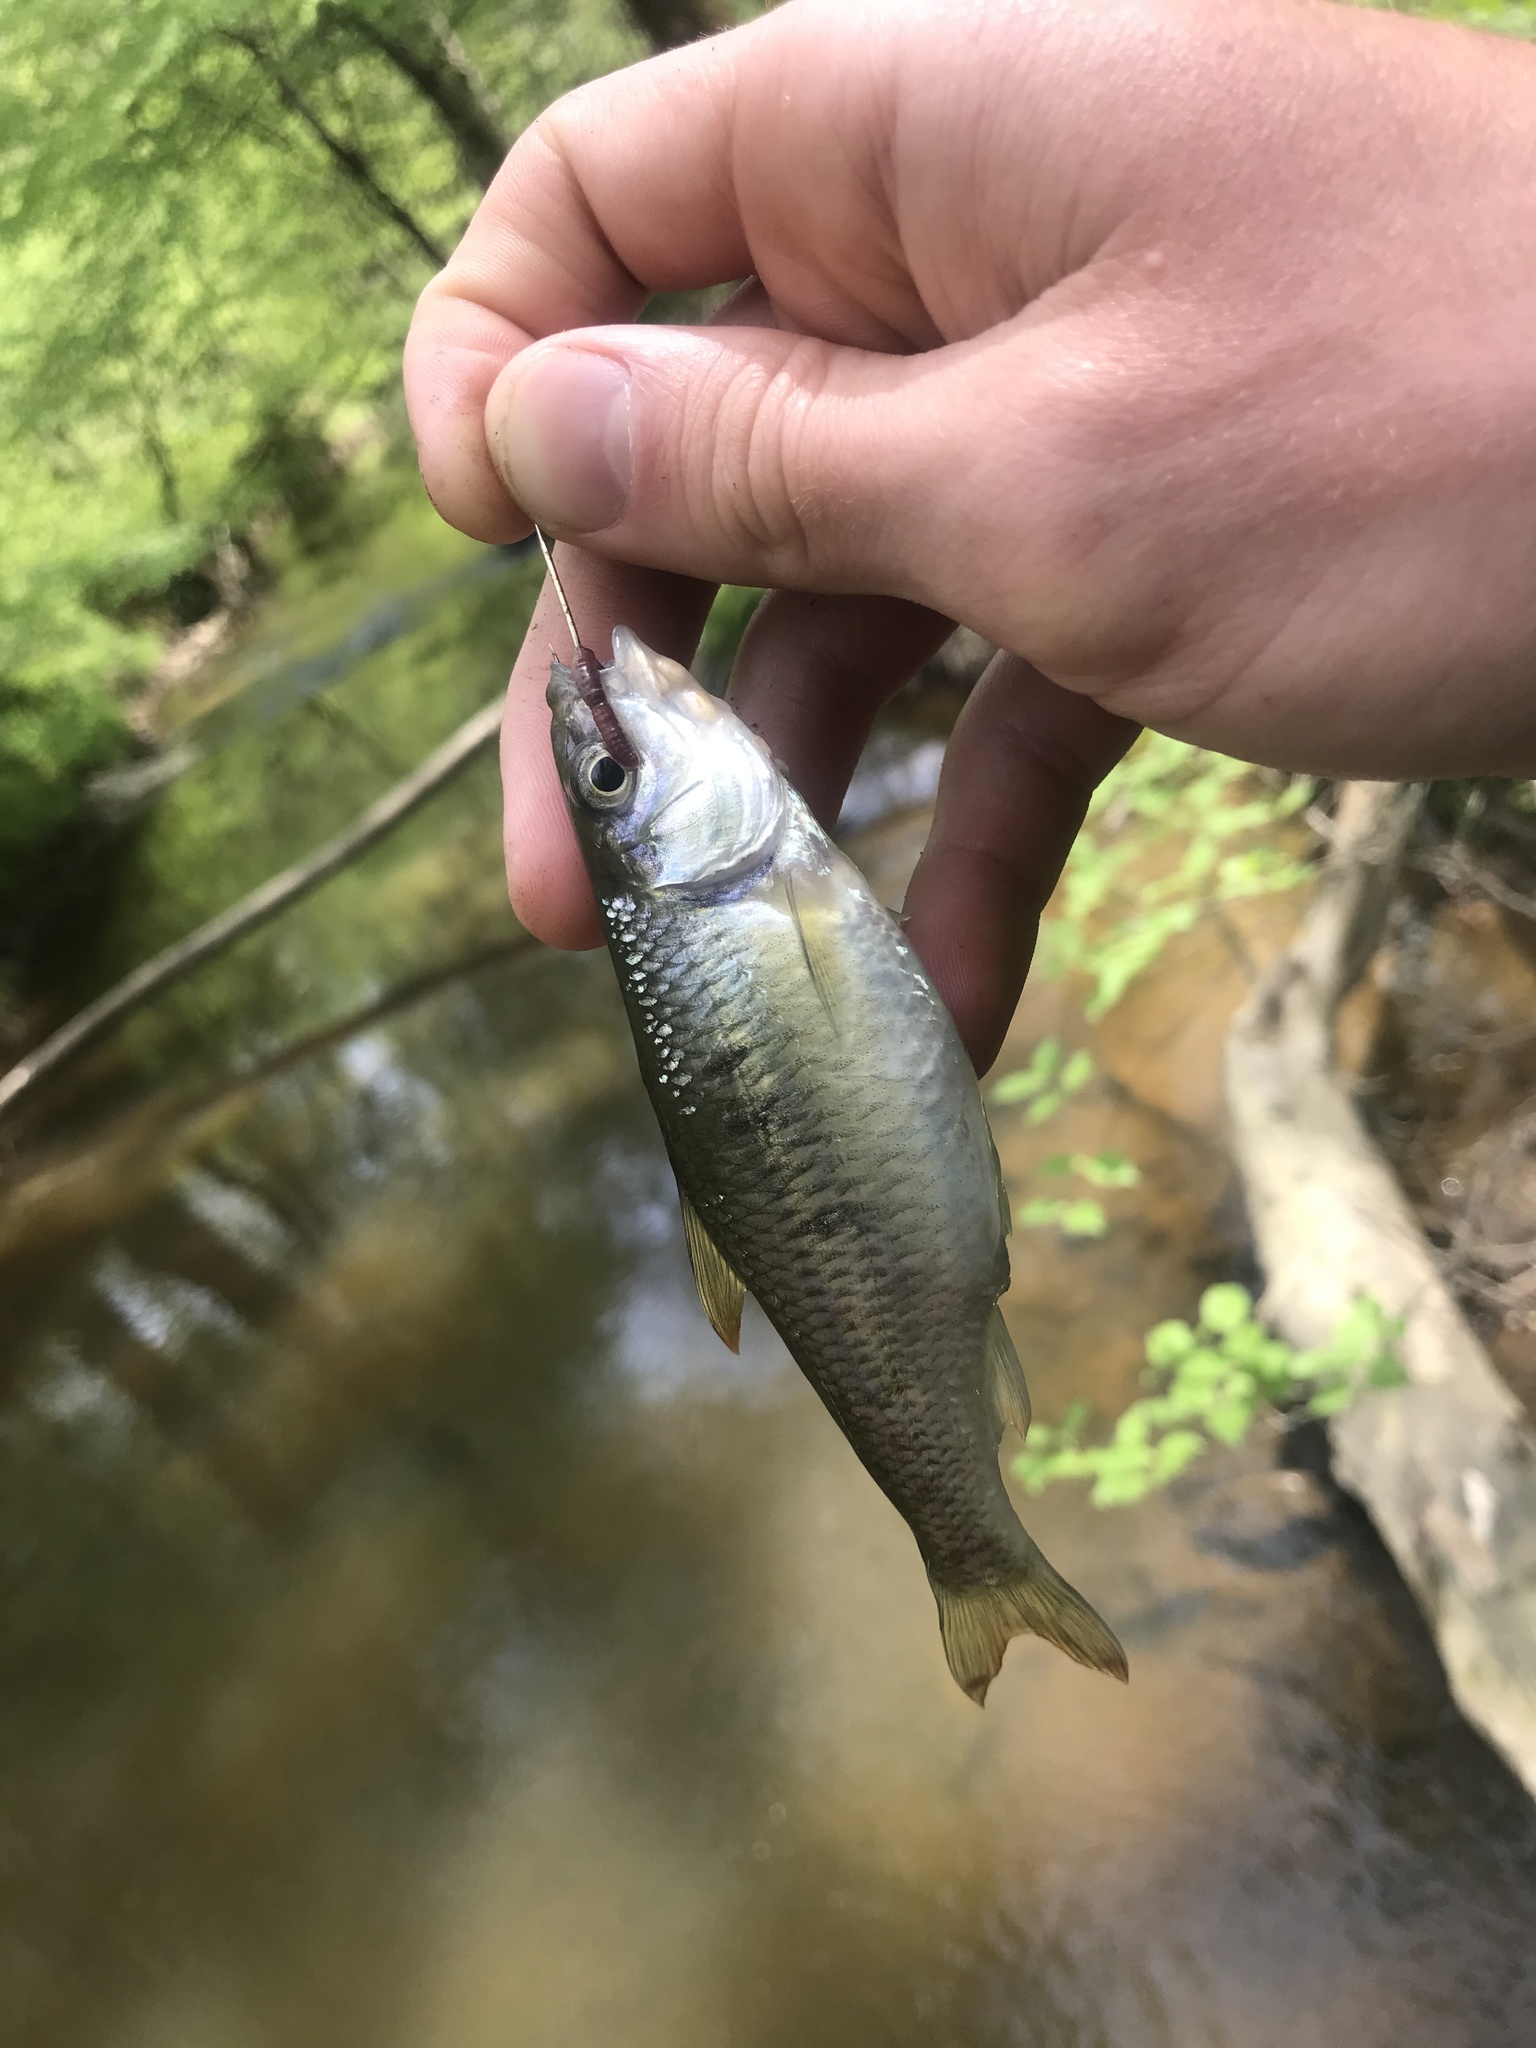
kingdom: Animalia
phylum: Chordata
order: Cypriniformes
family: Cyprinidae
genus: Luxilus
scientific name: Luxilus albeolus
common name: White shiner
